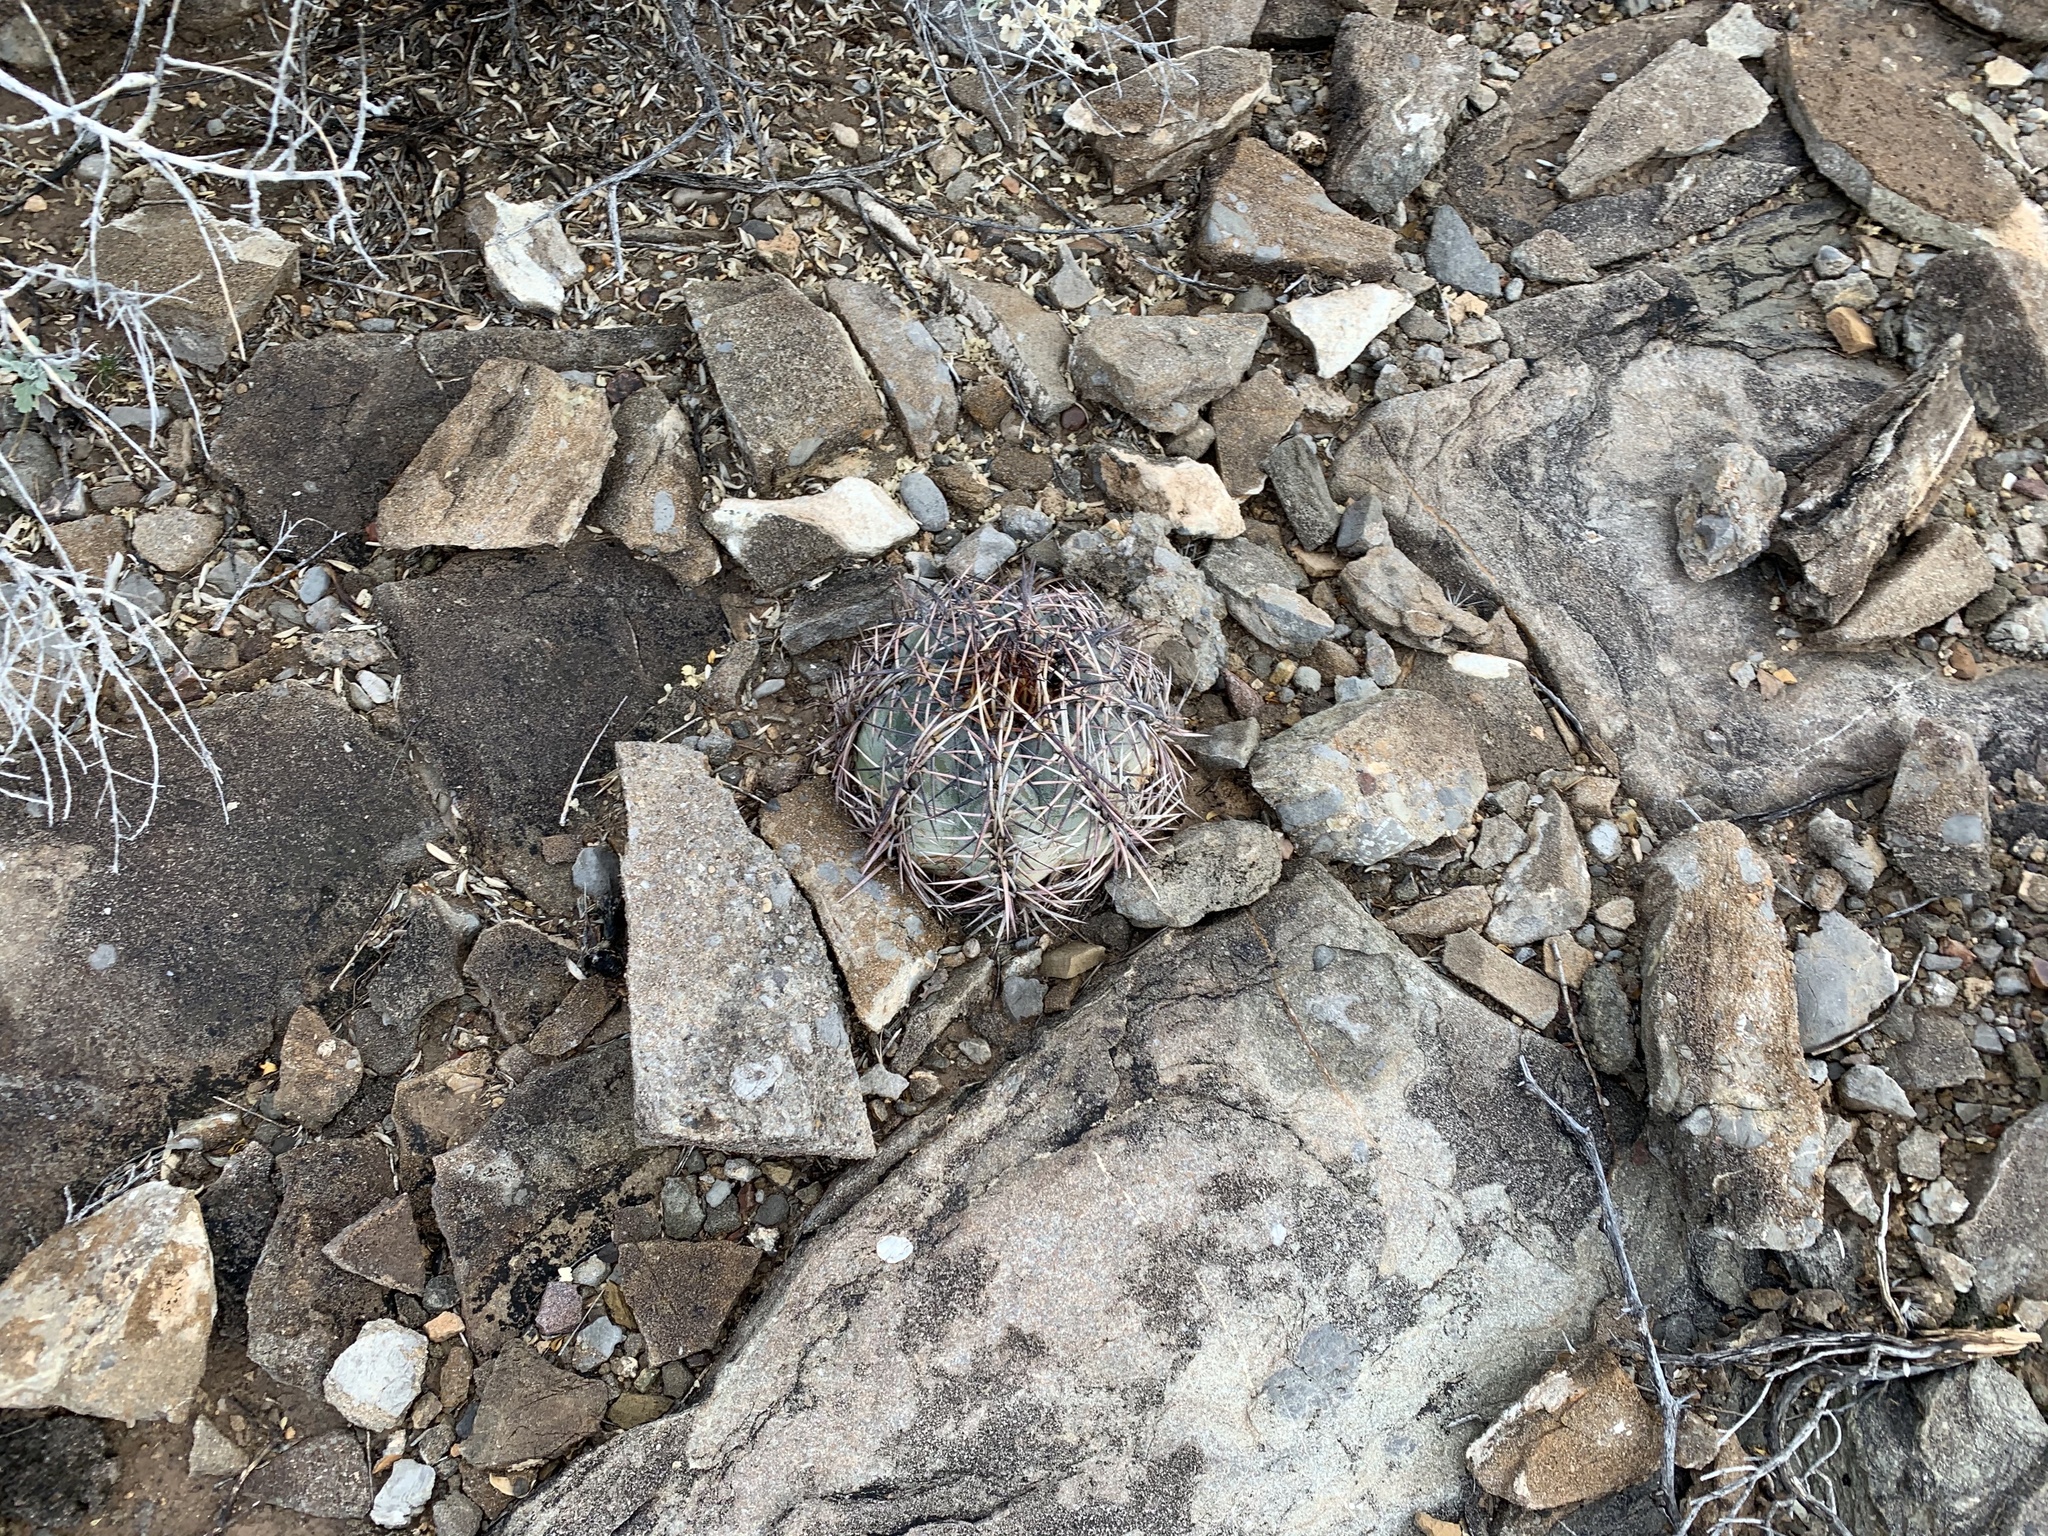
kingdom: Plantae
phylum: Tracheophyta
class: Magnoliopsida
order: Caryophyllales
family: Cactaceae
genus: Echinocactus
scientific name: Echinocactus horizonthalonius
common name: Devilshead
